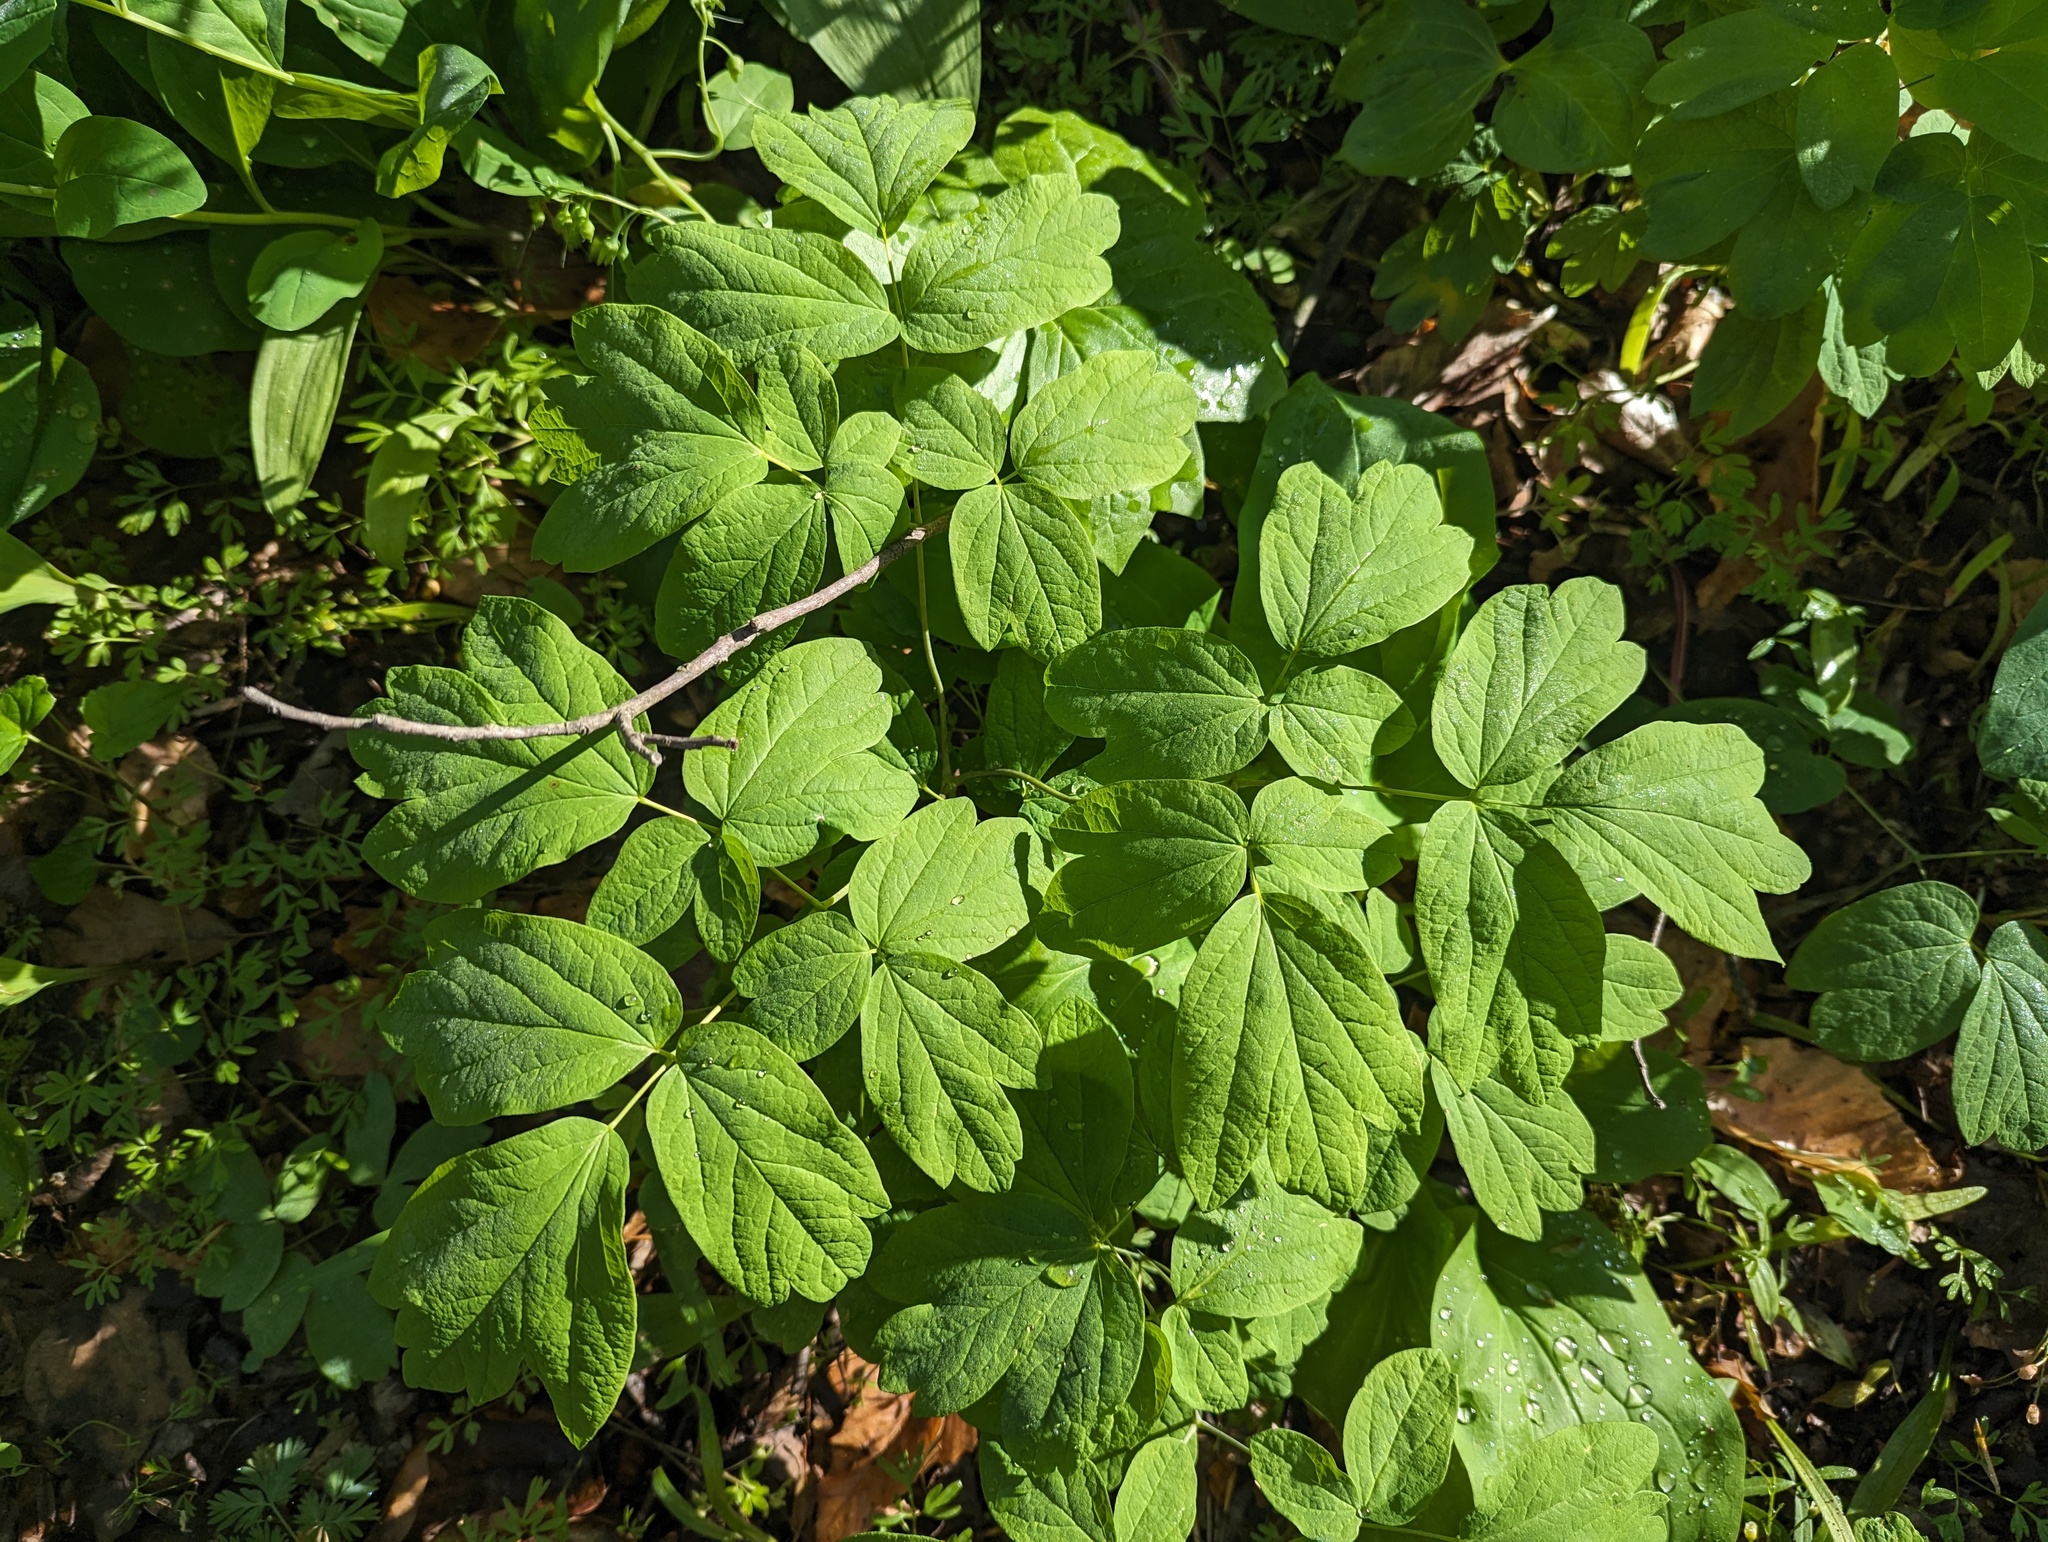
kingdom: Plantae
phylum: Tracheophyta
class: Magnoliopsida
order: Ranunculales
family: Berberidaceae
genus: Caulophyllum
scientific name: Caulophyllum thalictroides
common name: Blue cohosh
